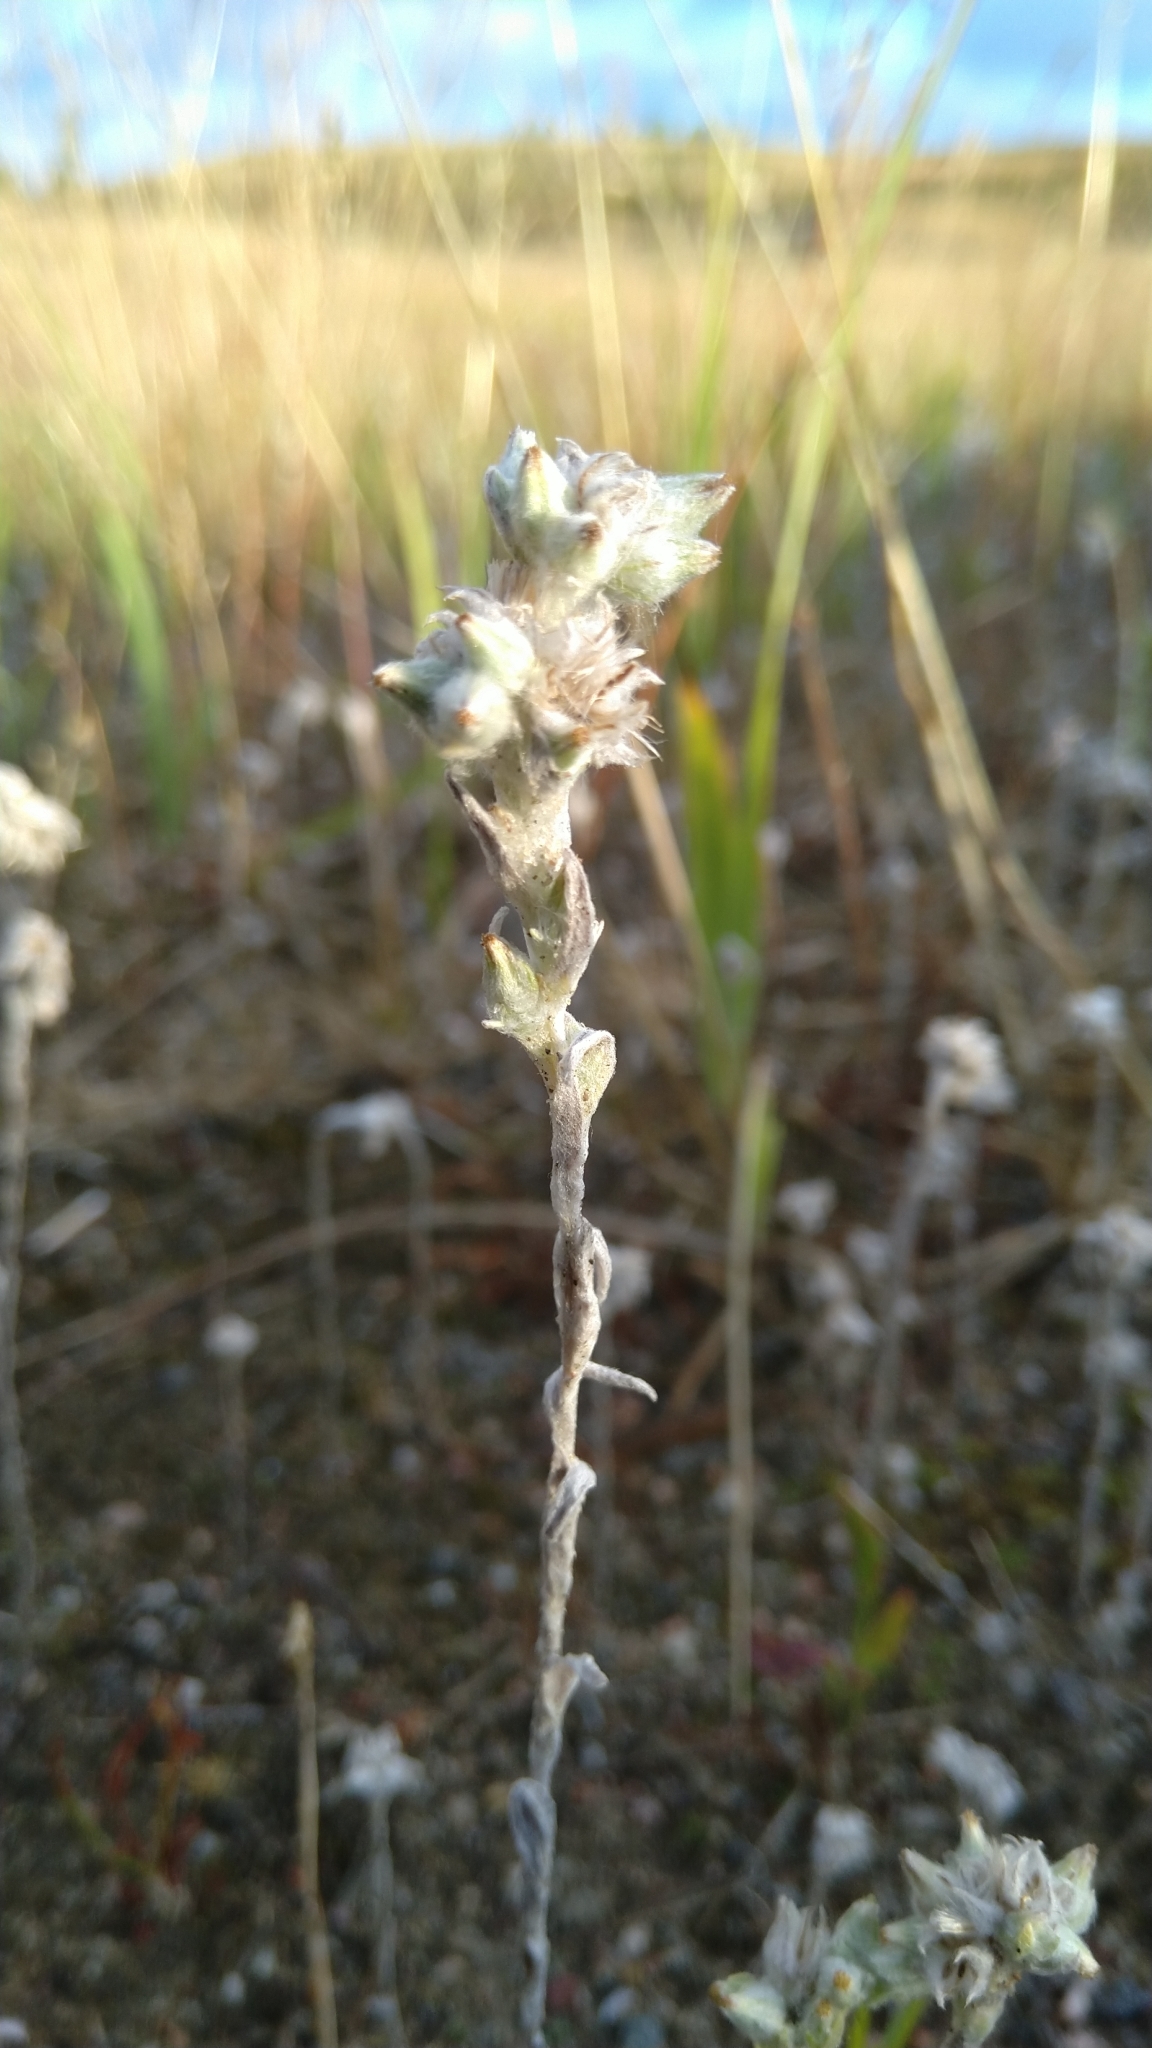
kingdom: Plantae
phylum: Tracheophyta
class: Magnoliopsida
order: Asterales
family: Asteraceae
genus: Filago
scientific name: Filago arvensis
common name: Field cudweed
